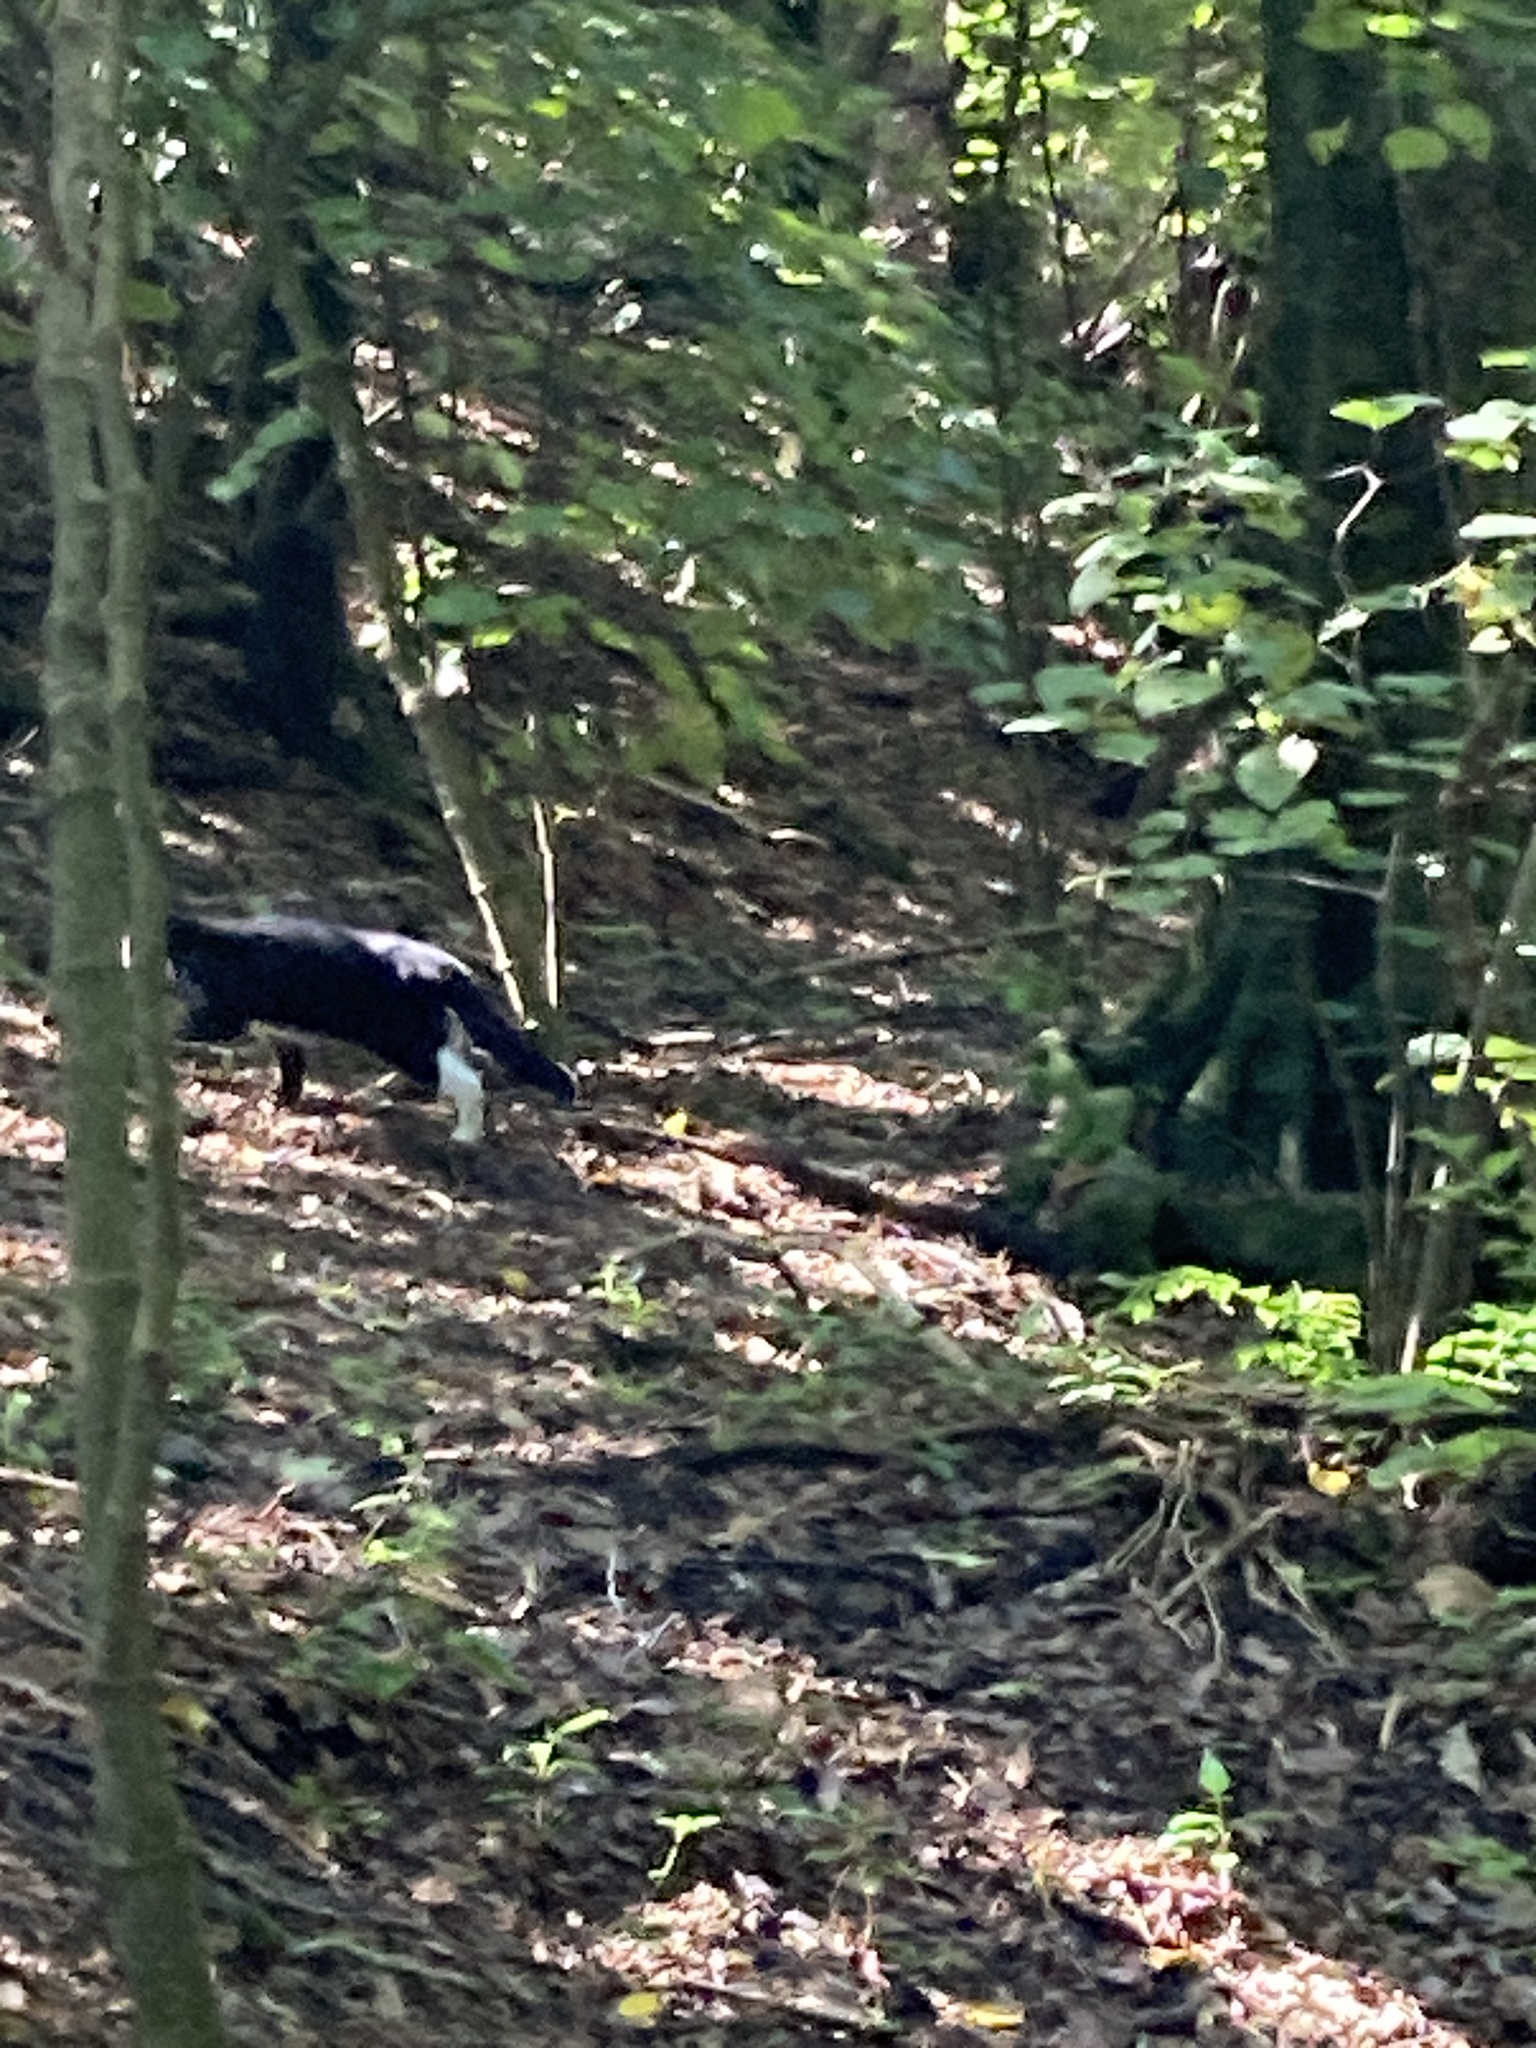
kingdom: Animalia
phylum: Chordata
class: Mammalia
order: Carnivora
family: Felidae
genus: Felis
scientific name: Felis catus
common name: Domestic cat
